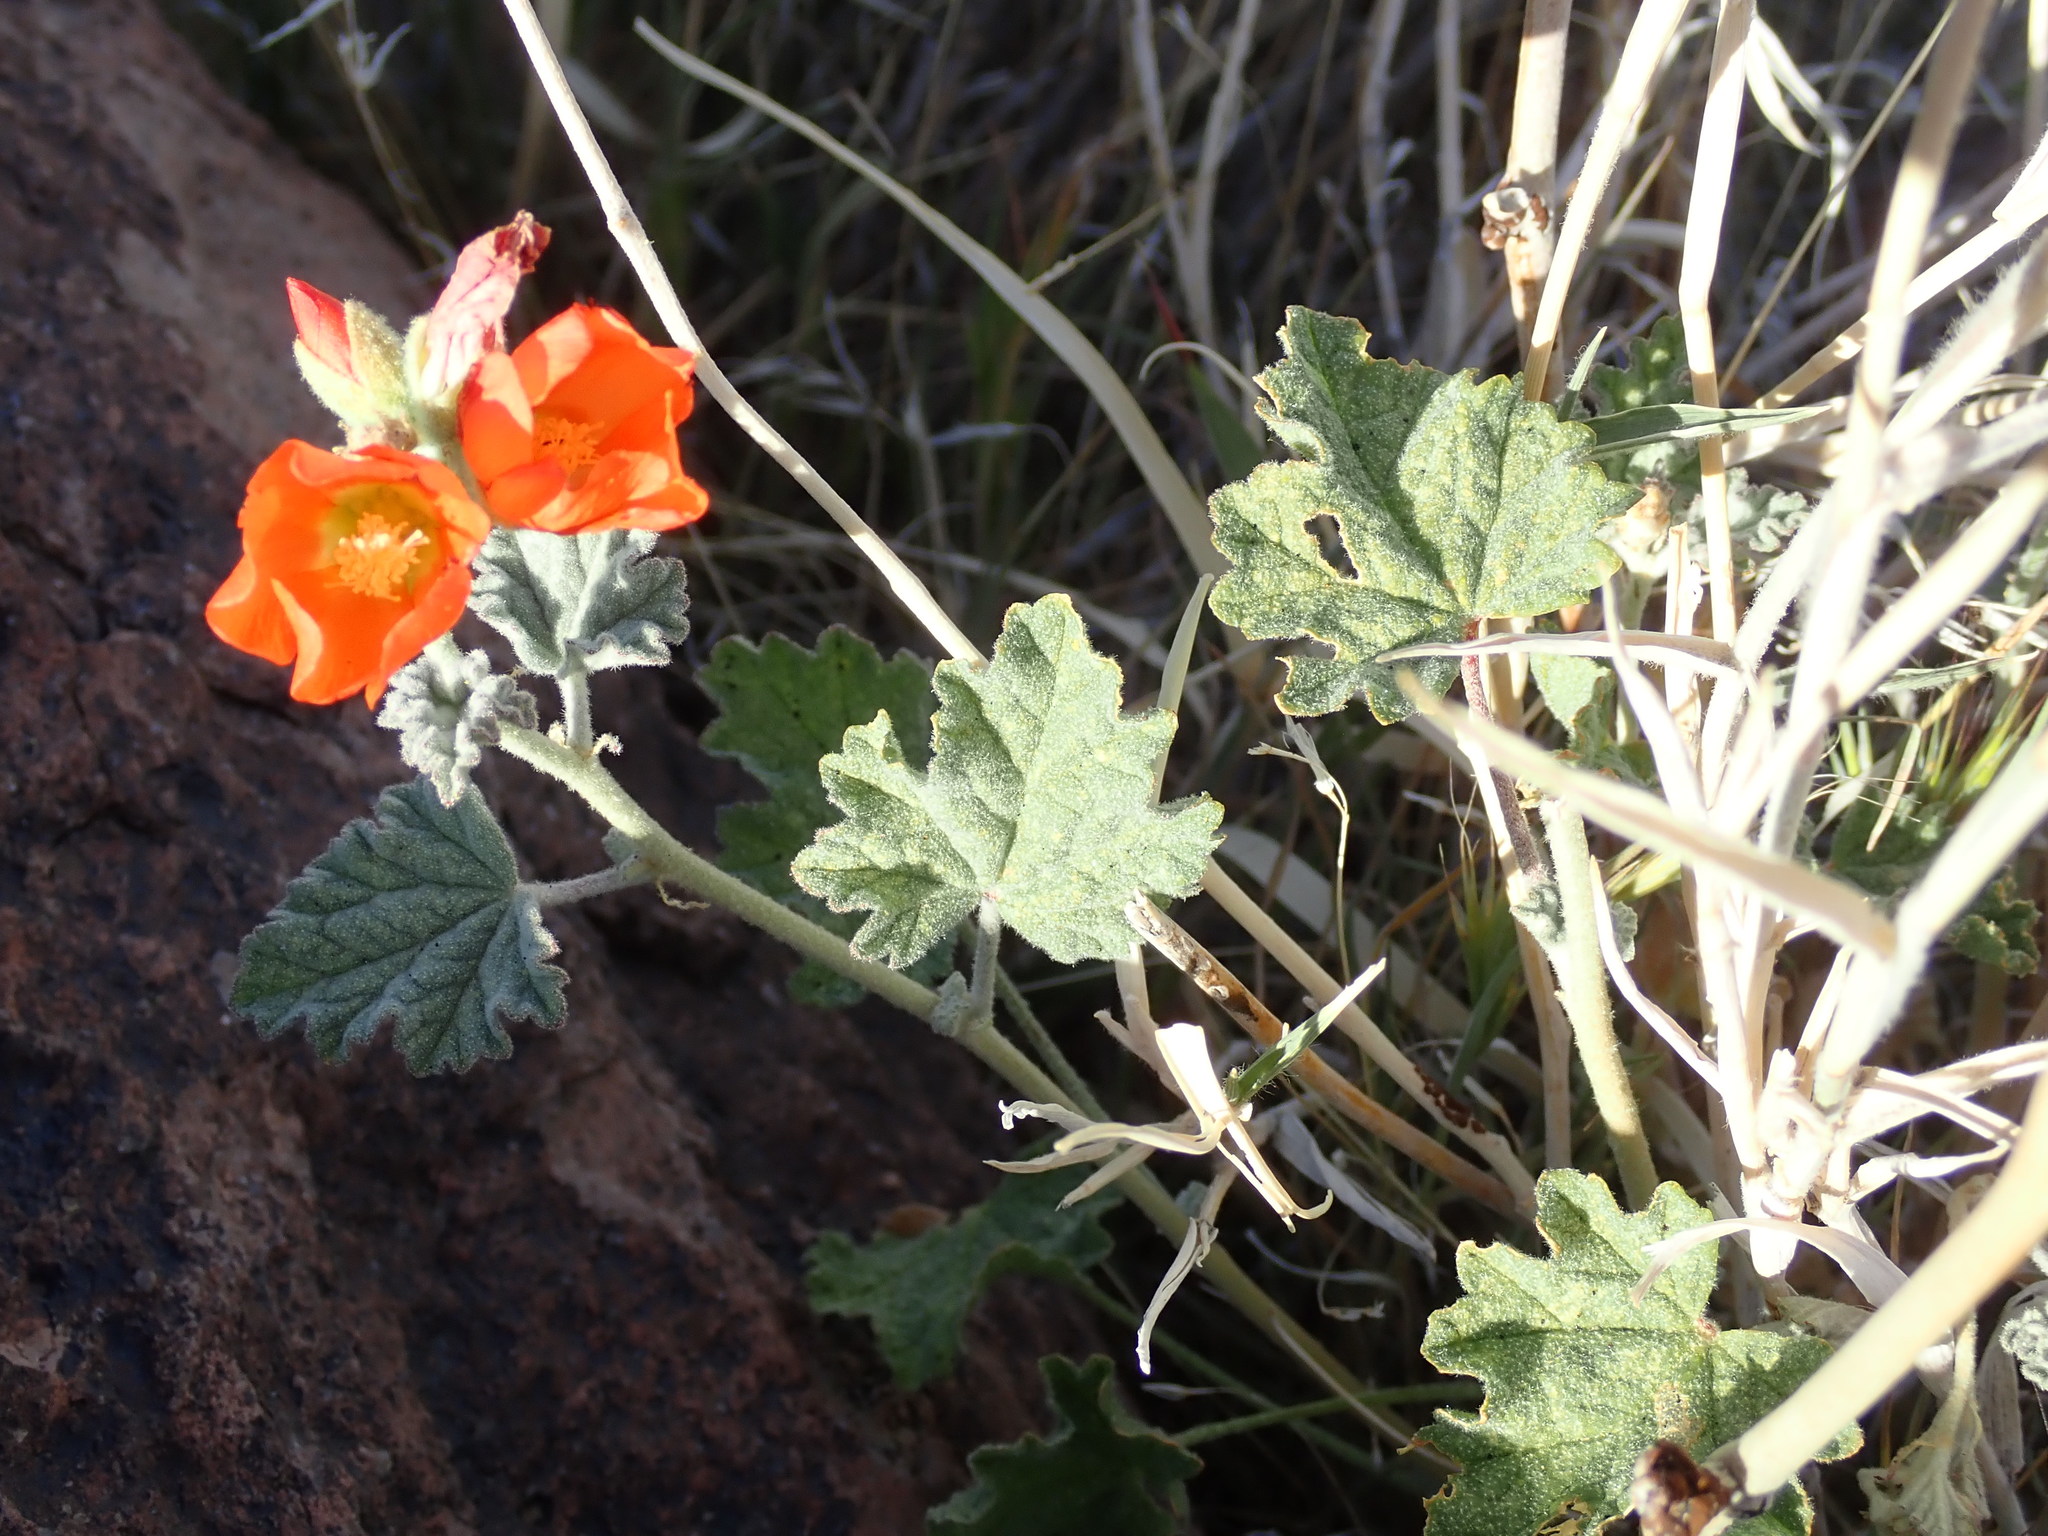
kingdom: Plantae
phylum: Tracheophyta
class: Magnoliopsida
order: Malvales
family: Malvaceae
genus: Sphaeralcea
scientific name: Sphaeralcea ambigua
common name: Apricot globe-mallow
